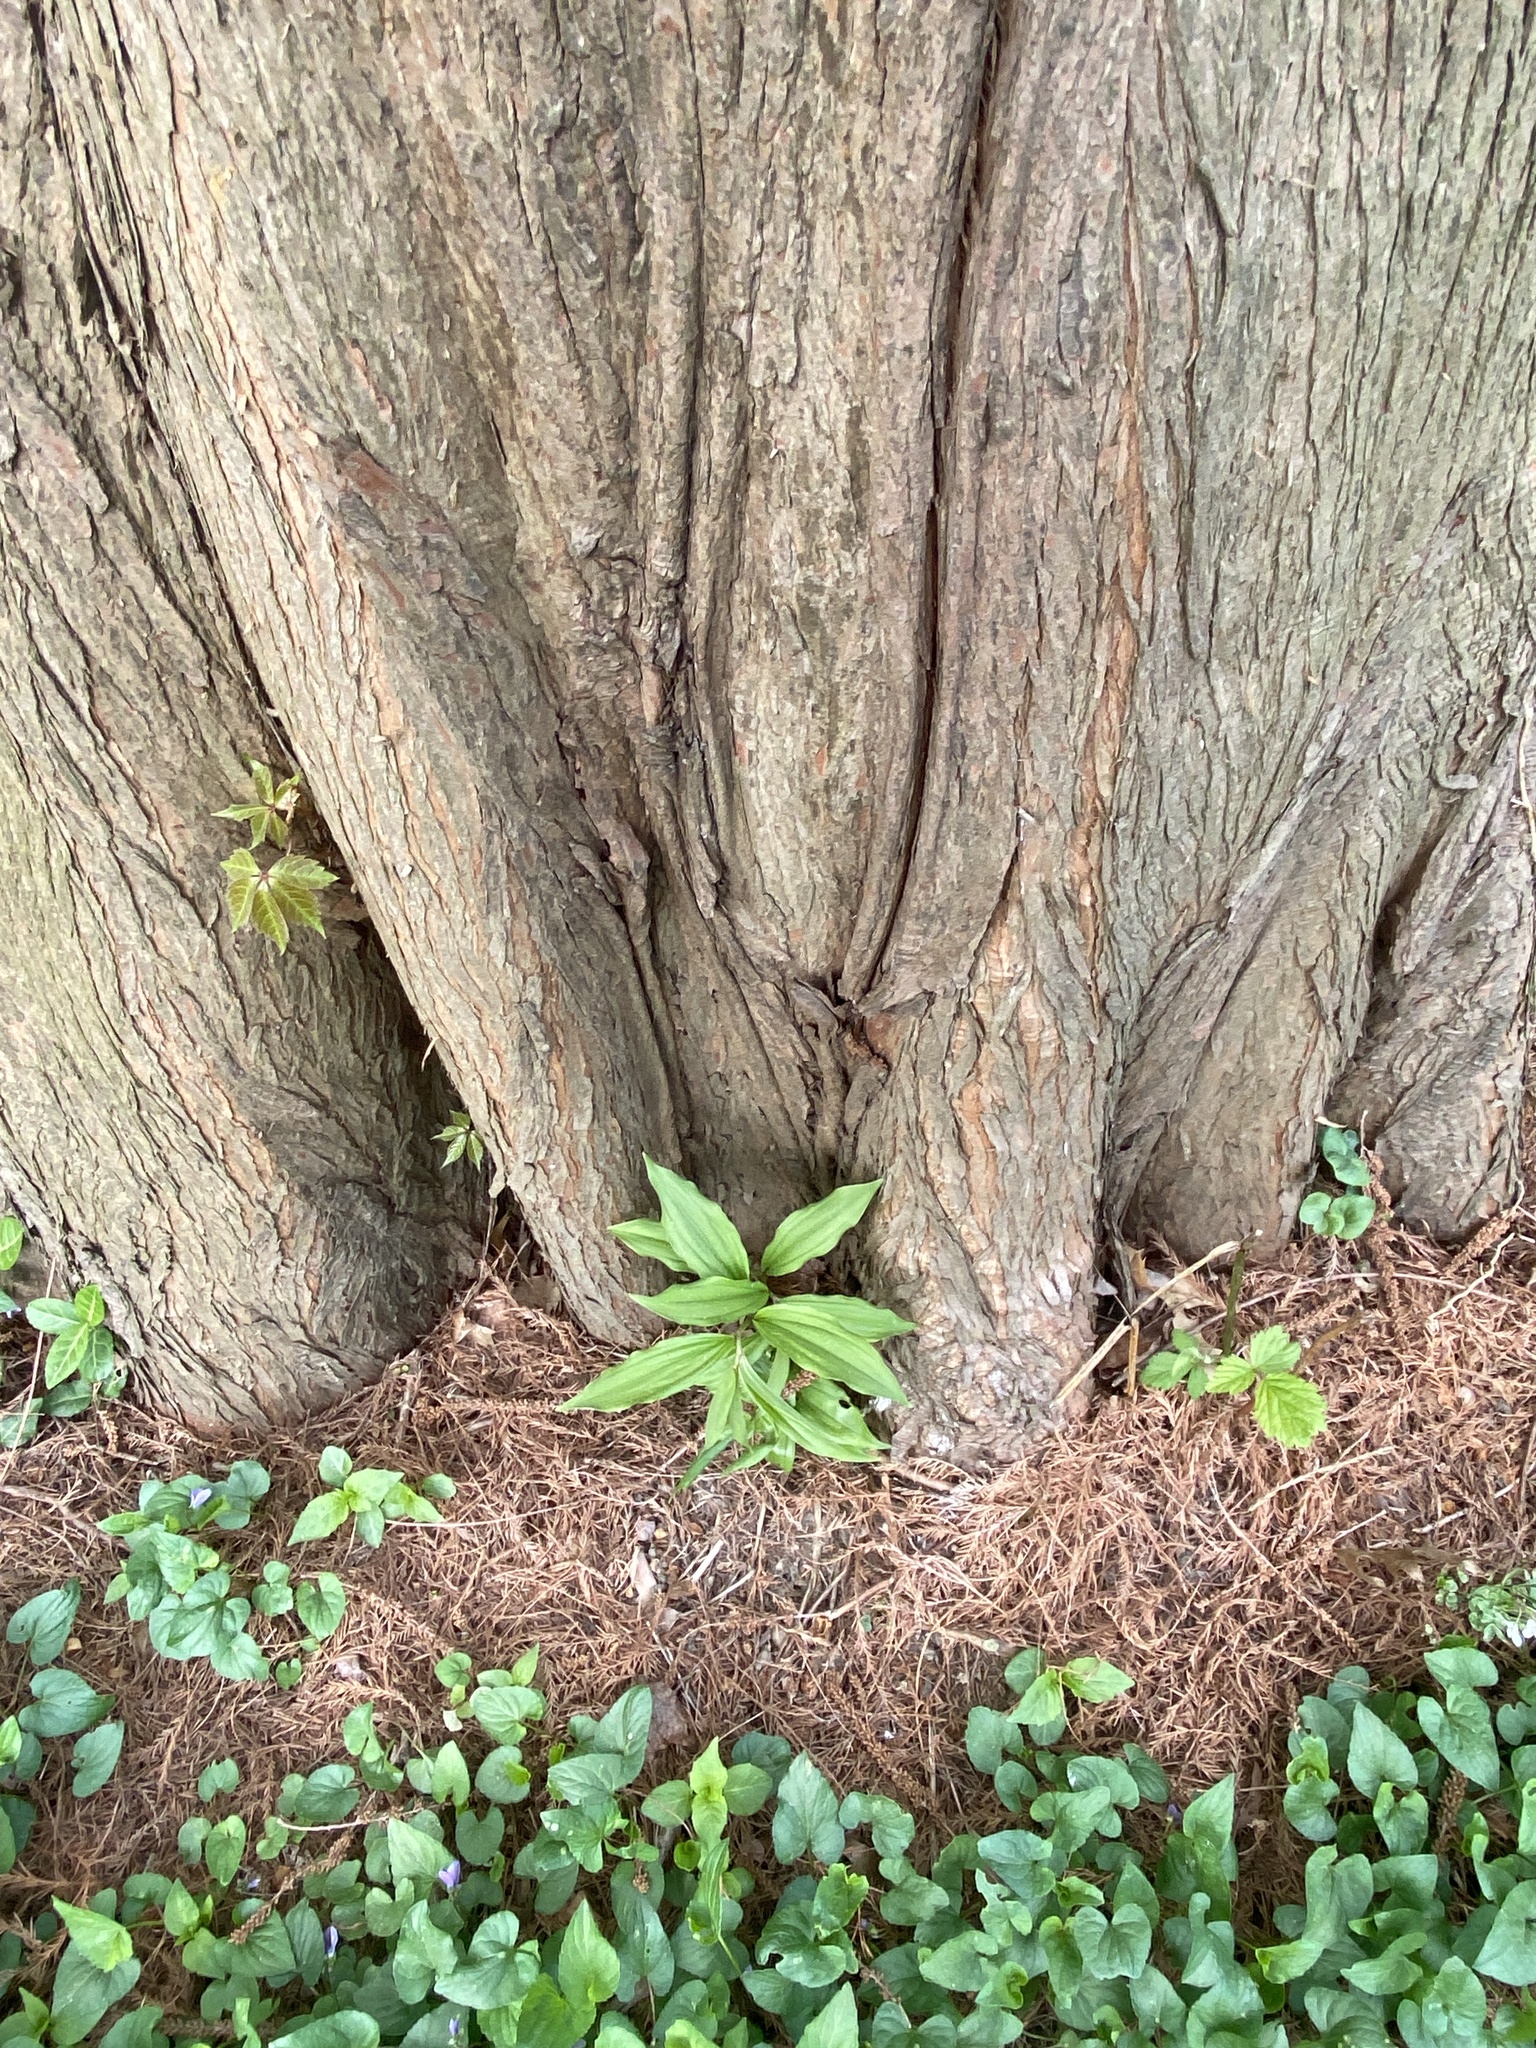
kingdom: Plantae
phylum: Tracheophyta
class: Liliopsida
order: Asparagales
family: Asparagaceae
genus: Maianthemum
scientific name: Maianthemum racemosum
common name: False spikenard
